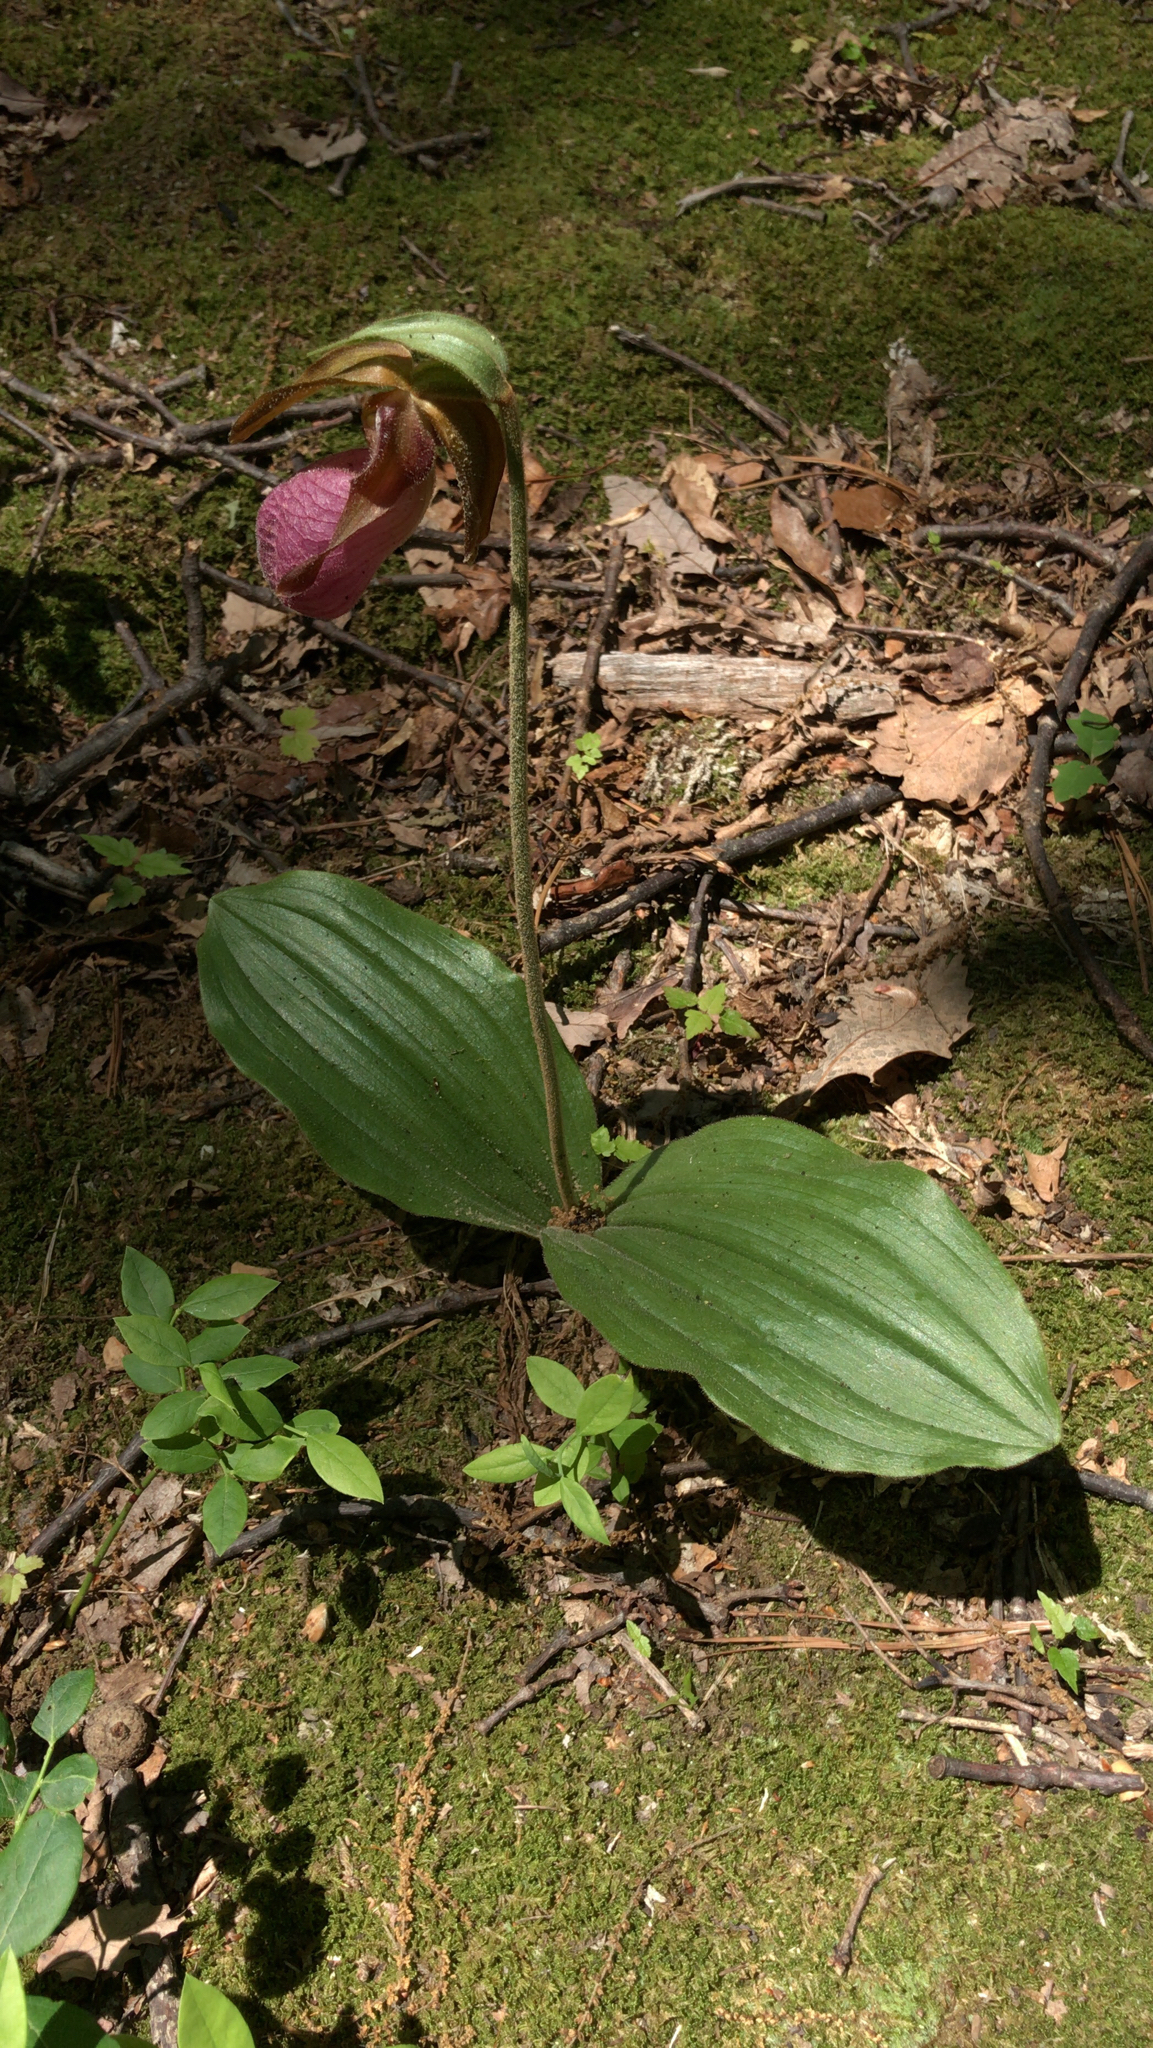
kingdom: Plantae
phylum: Tracheophyta
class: Liliopsida
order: Asparagales
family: Orchidaceae
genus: Cypripedium
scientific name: Cypripedium acaule
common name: Pink lady's-slipper
